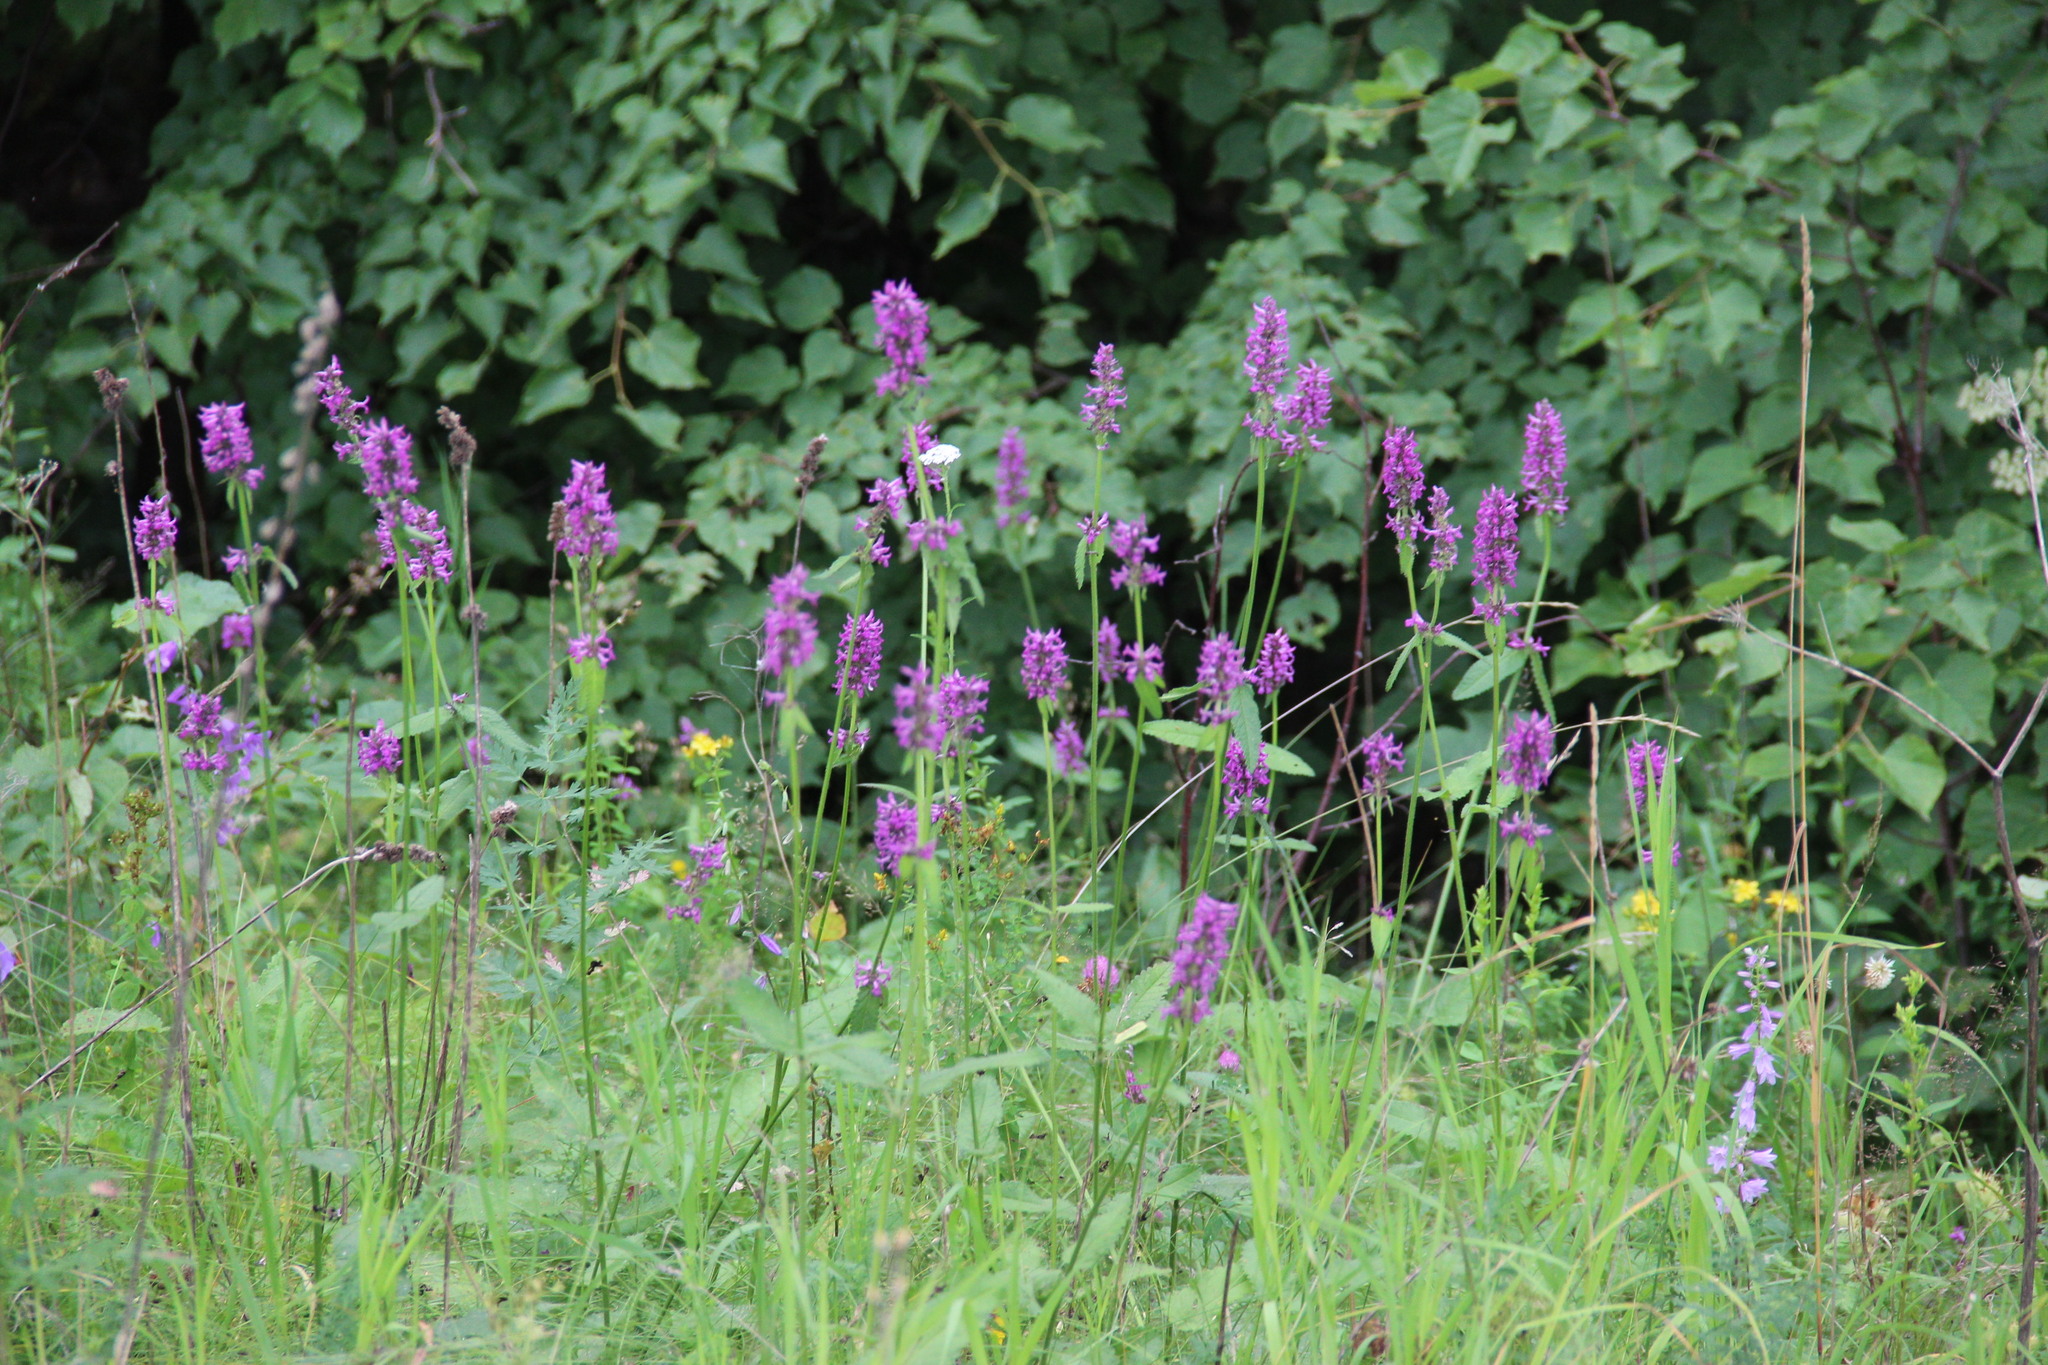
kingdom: Plantae
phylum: Tracheophyta
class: Magnoliopsida
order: Lamiales
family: Lamiaceae
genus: Betonica
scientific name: Betonica officinalis
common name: Bishop's-wort
